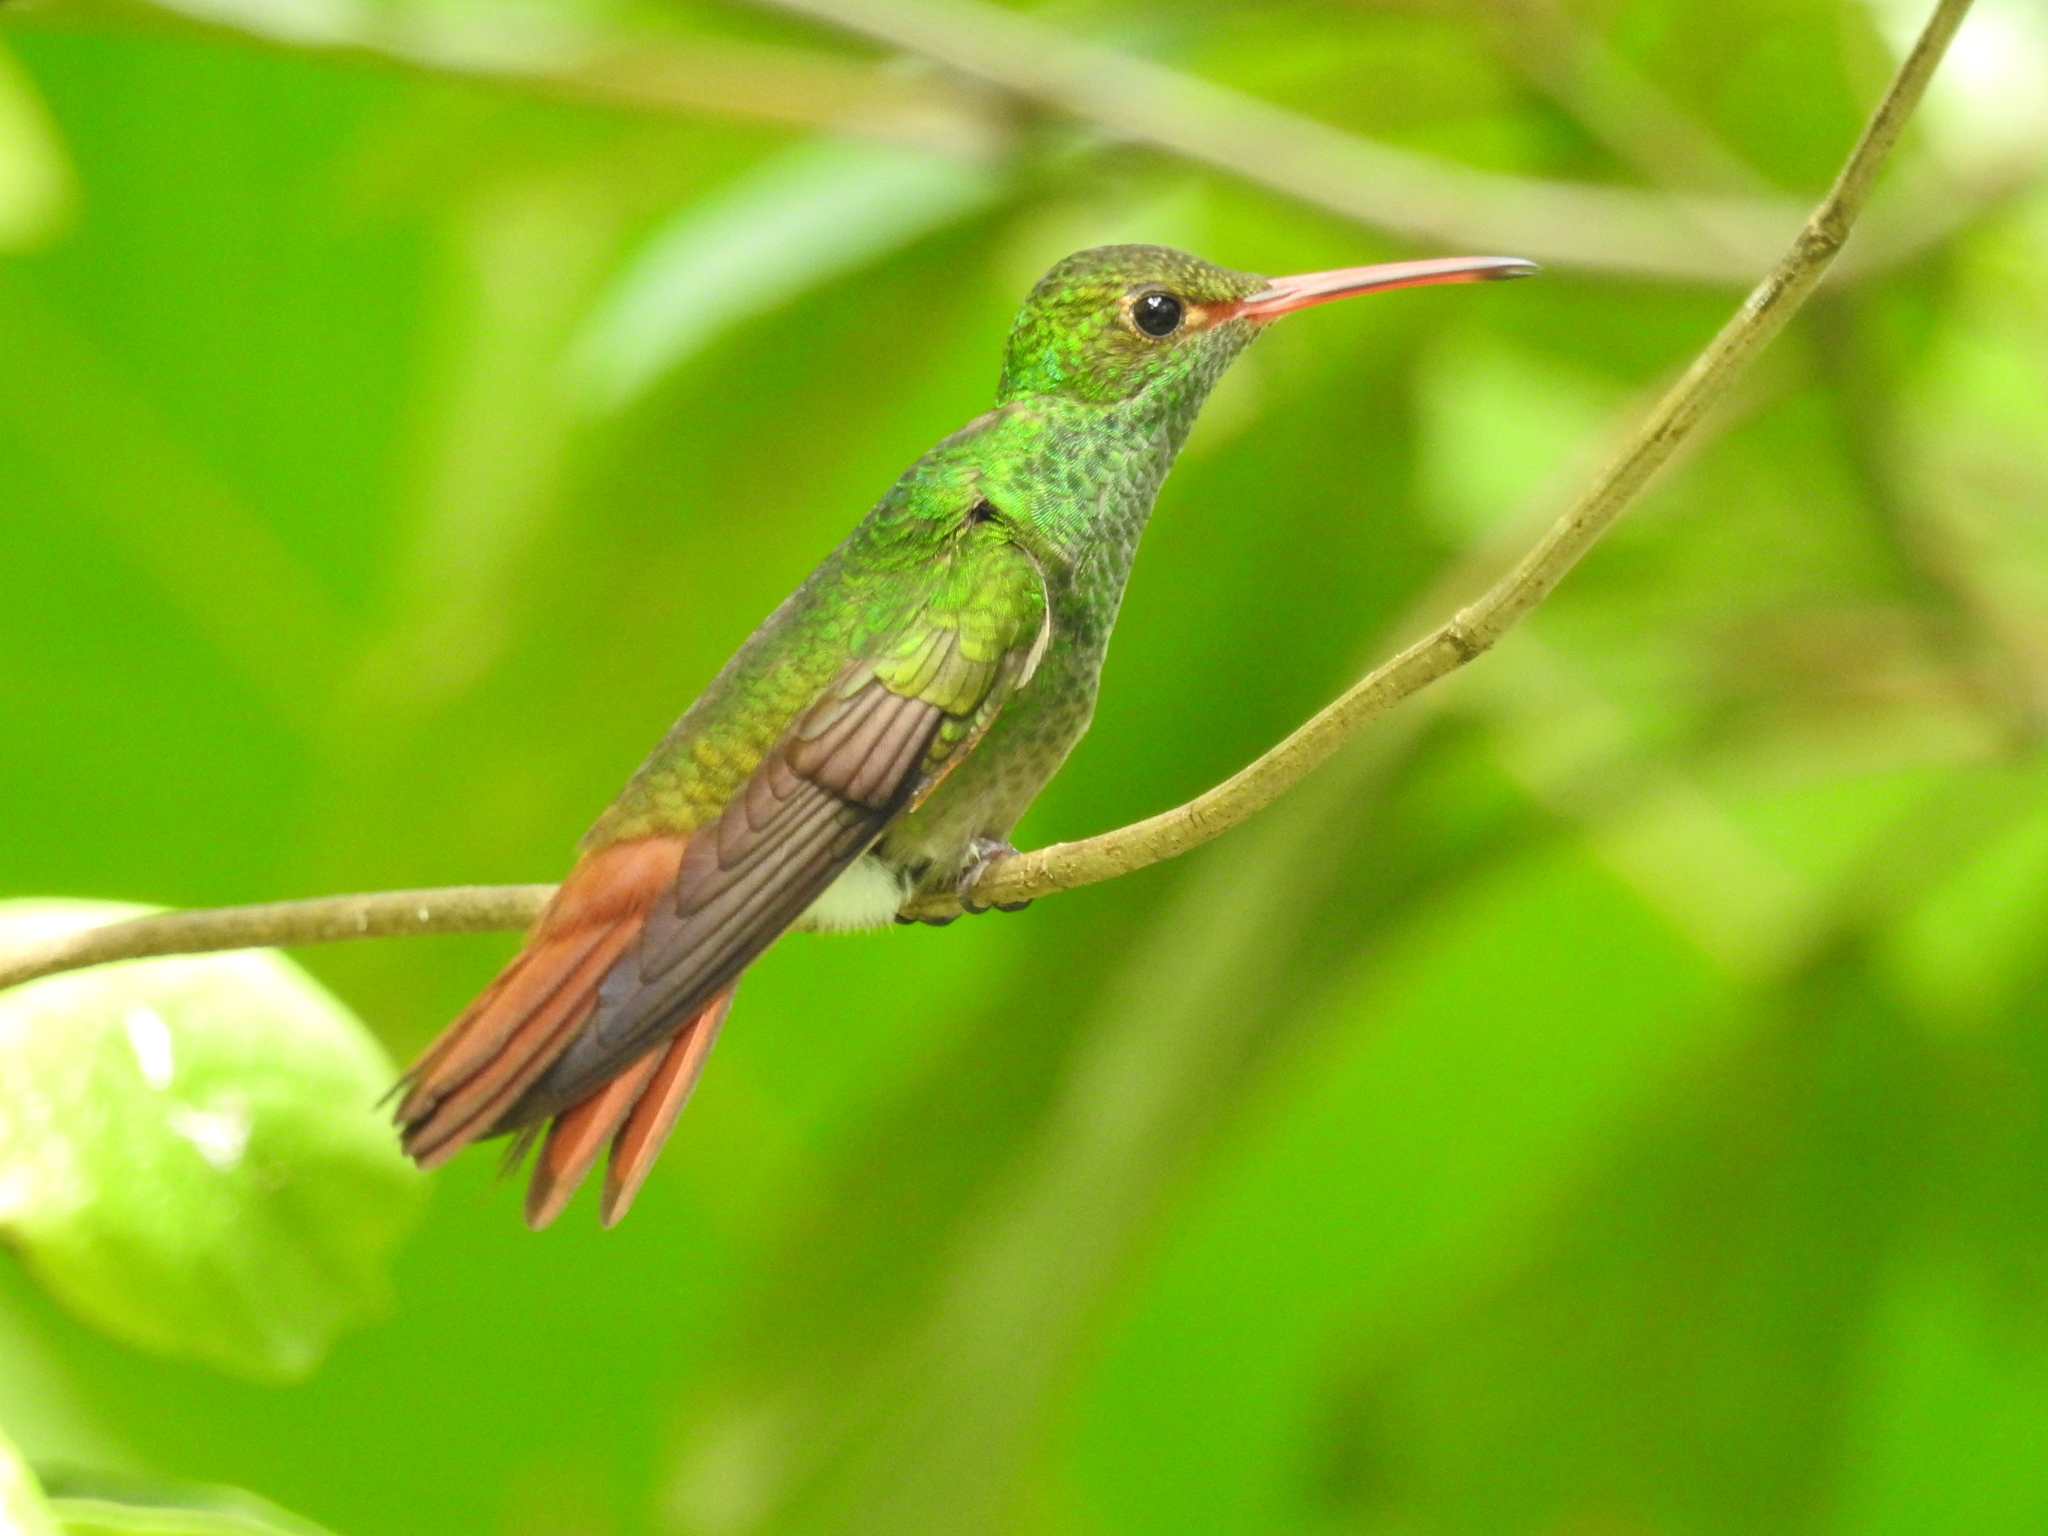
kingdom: Animalia
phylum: Chordata
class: Aves
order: Apodiformes
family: Trochilidae
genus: Amazilia
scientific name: Amazilia tzacatl
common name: Rufous-tailed hummingbird
